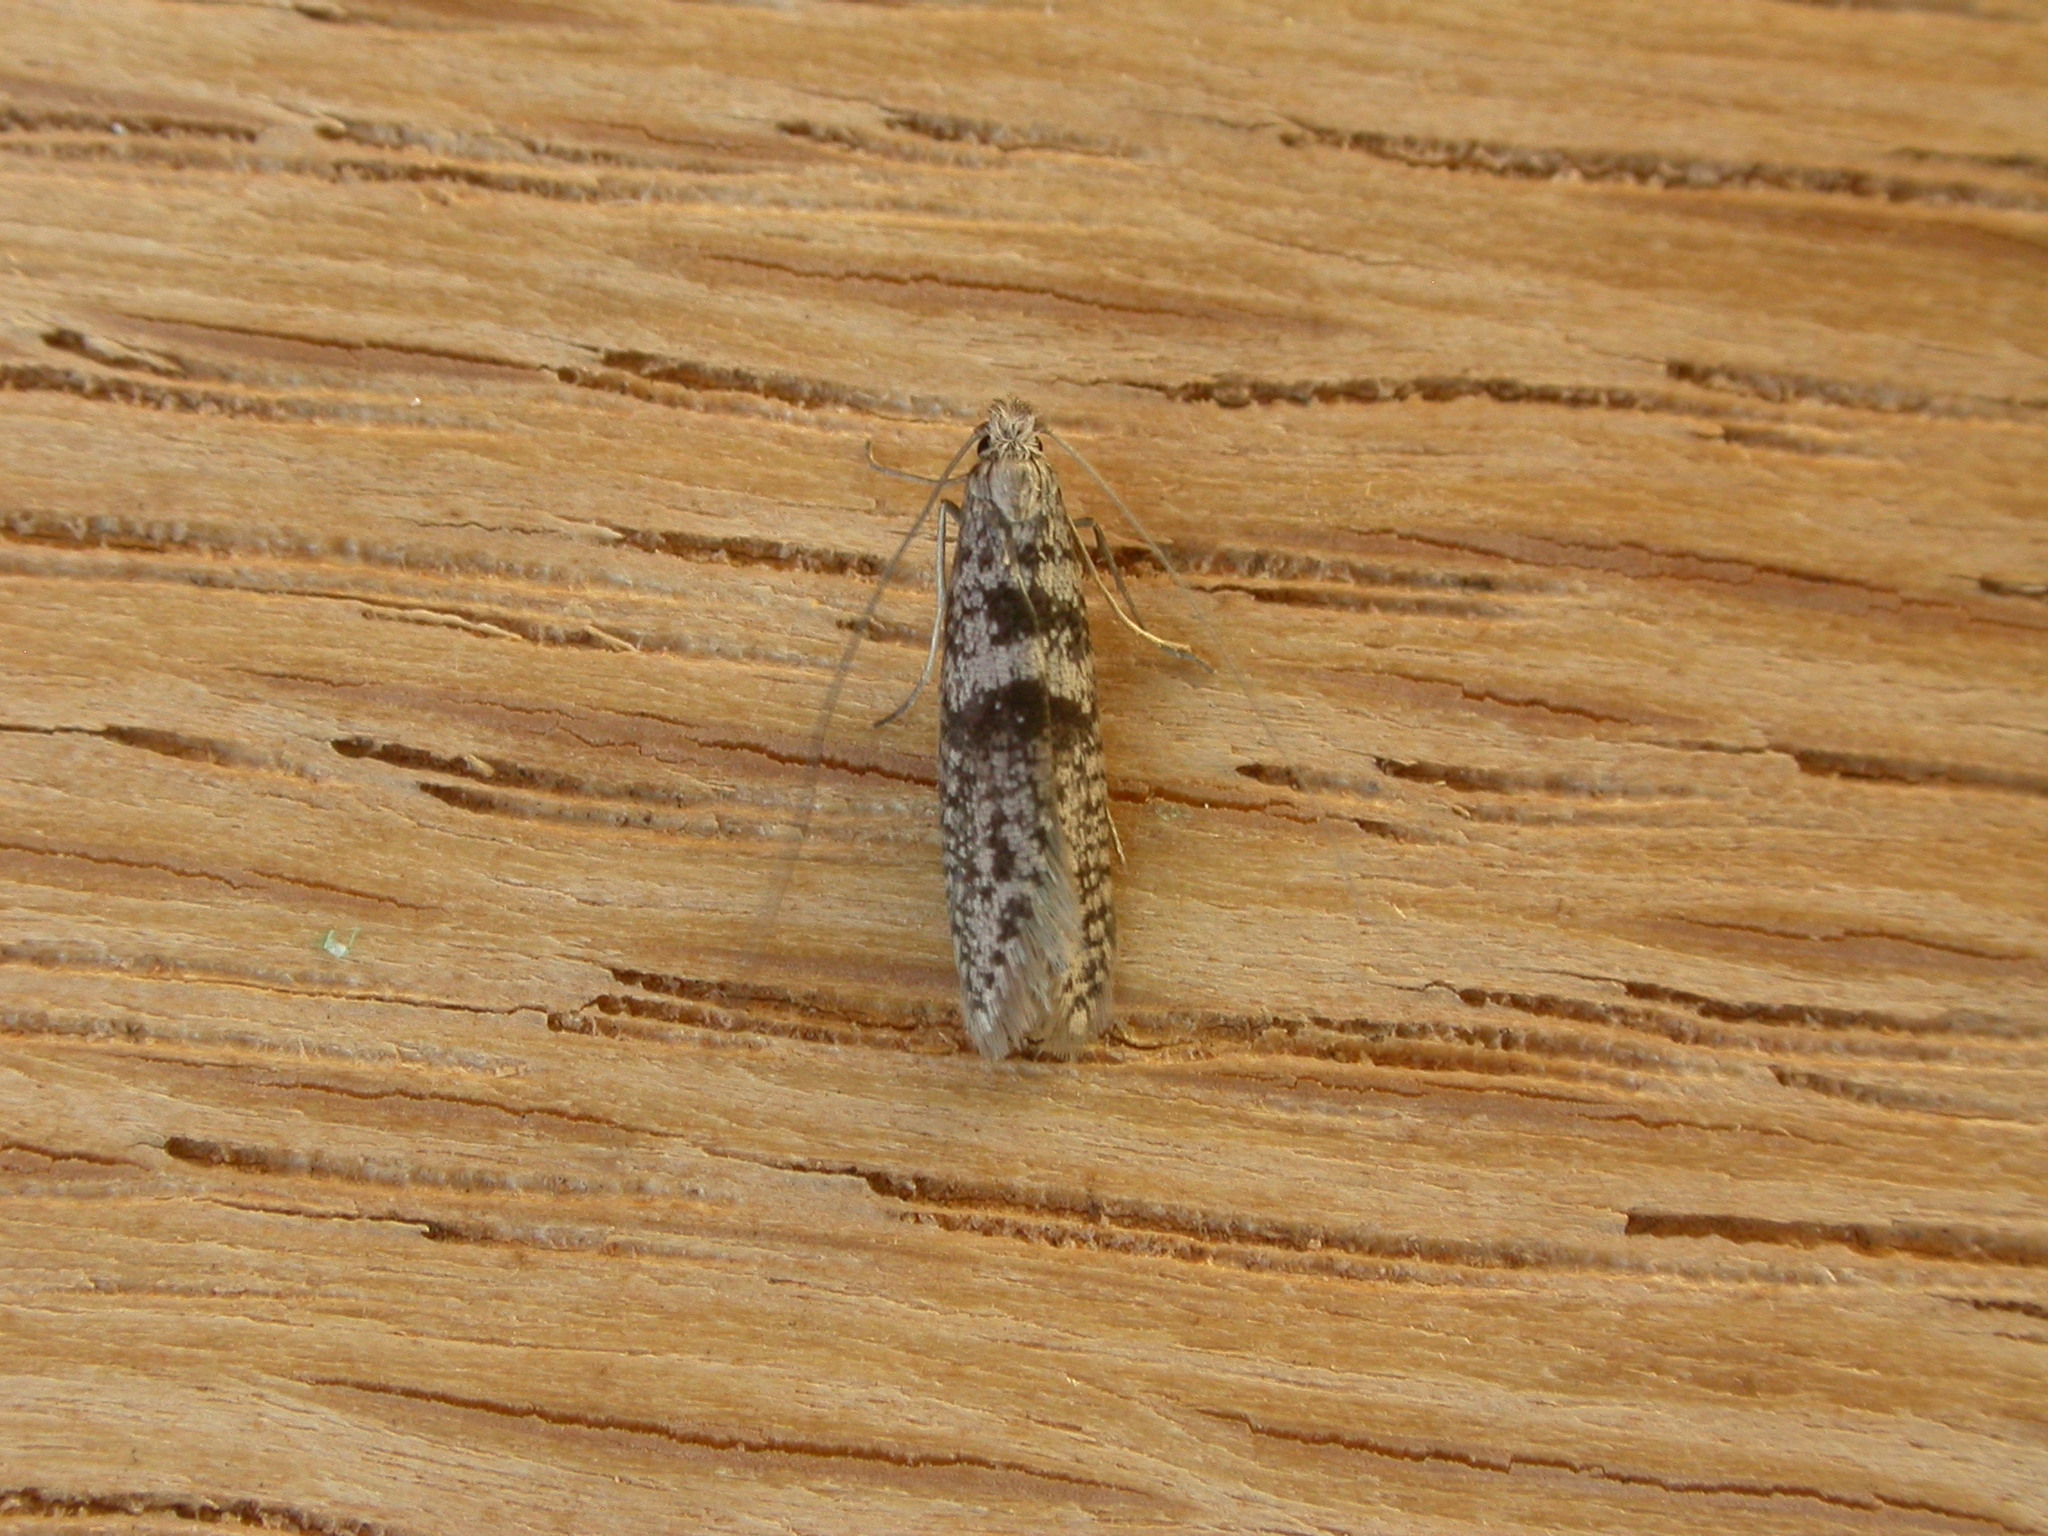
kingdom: Animalia
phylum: Arthropoda
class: Insecta
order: Lepidoptera
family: Adelidae
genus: Ceromitia
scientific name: Ceromitia iolampra
